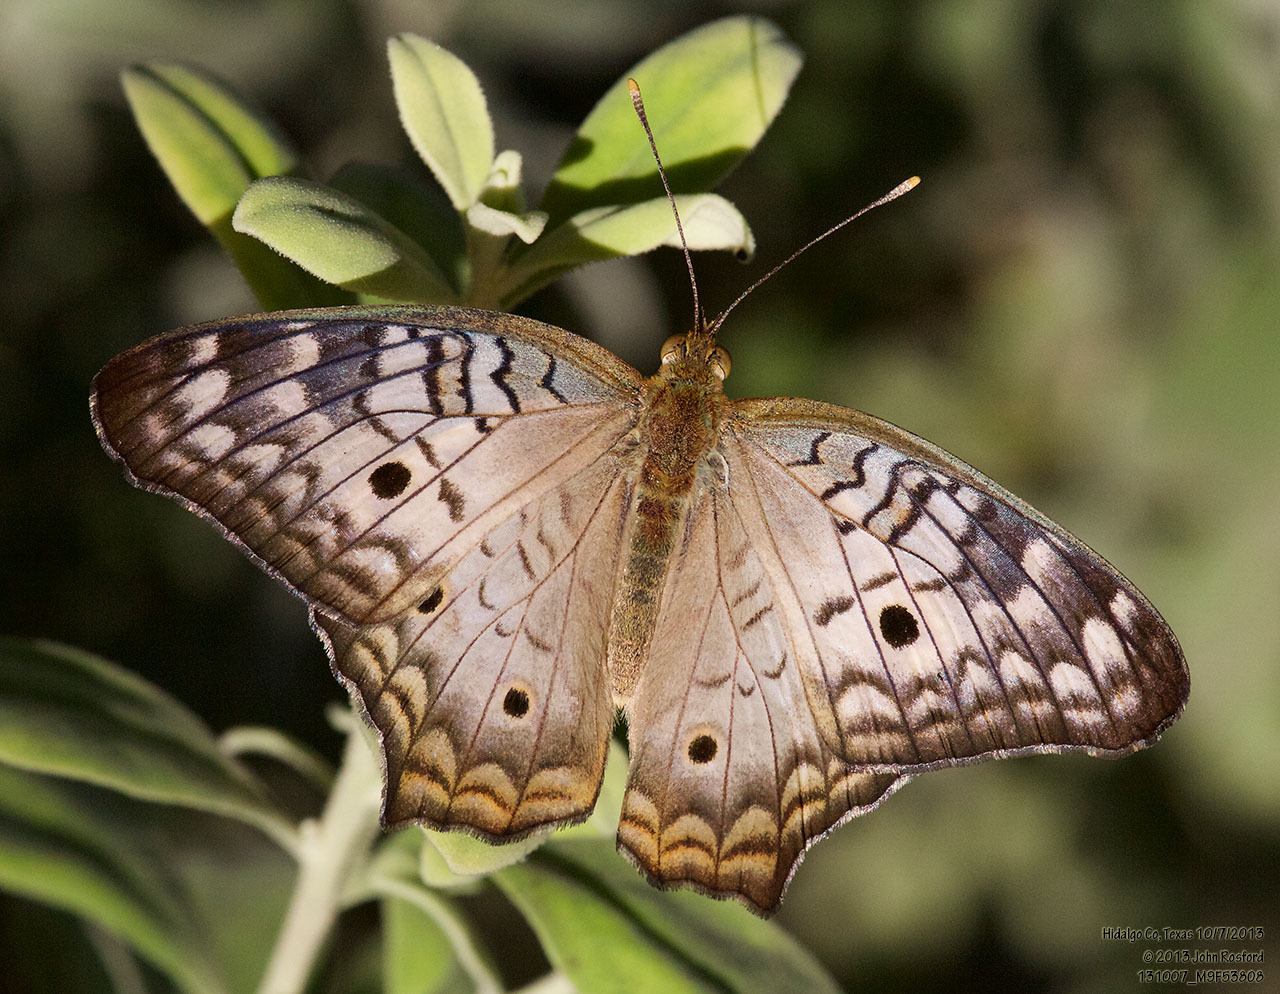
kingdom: Animalia
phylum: Arthropoda
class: Insecta
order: Lepidoptera
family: Nymphalidae
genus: Anartia
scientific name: Anartia jatrophae
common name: White peacock
